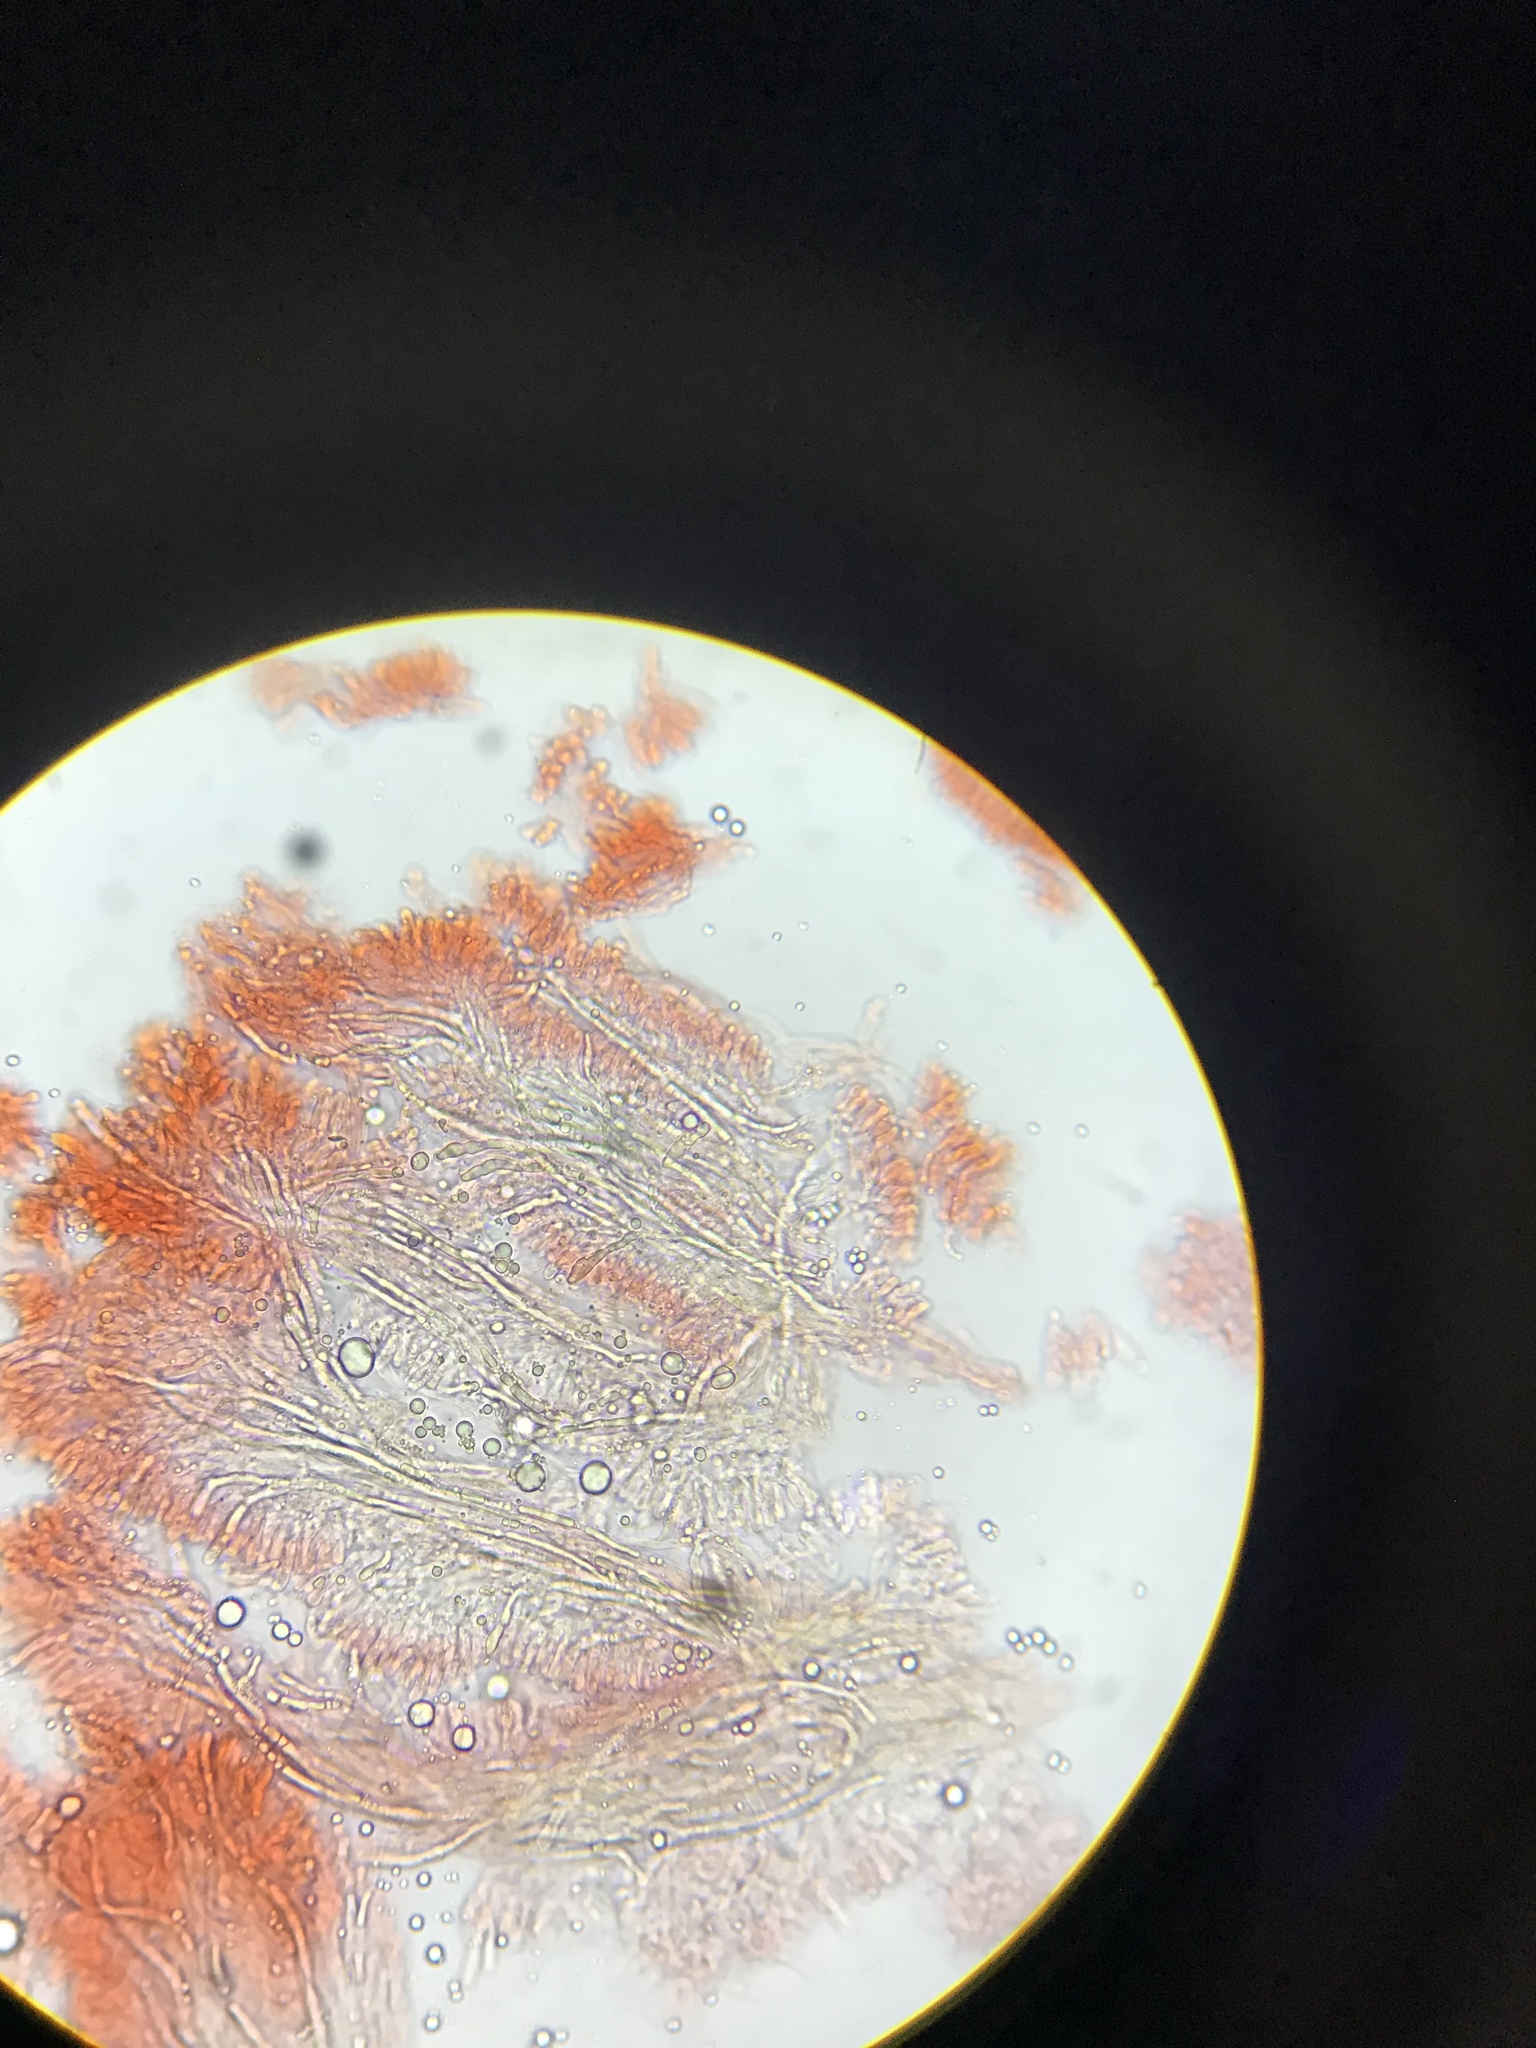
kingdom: Fungi
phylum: Basidiomycota
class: Agaricomycetes
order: Russulales
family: Auriscalpiaceae
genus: Lentinellus
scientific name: Lentinellus castoreus
